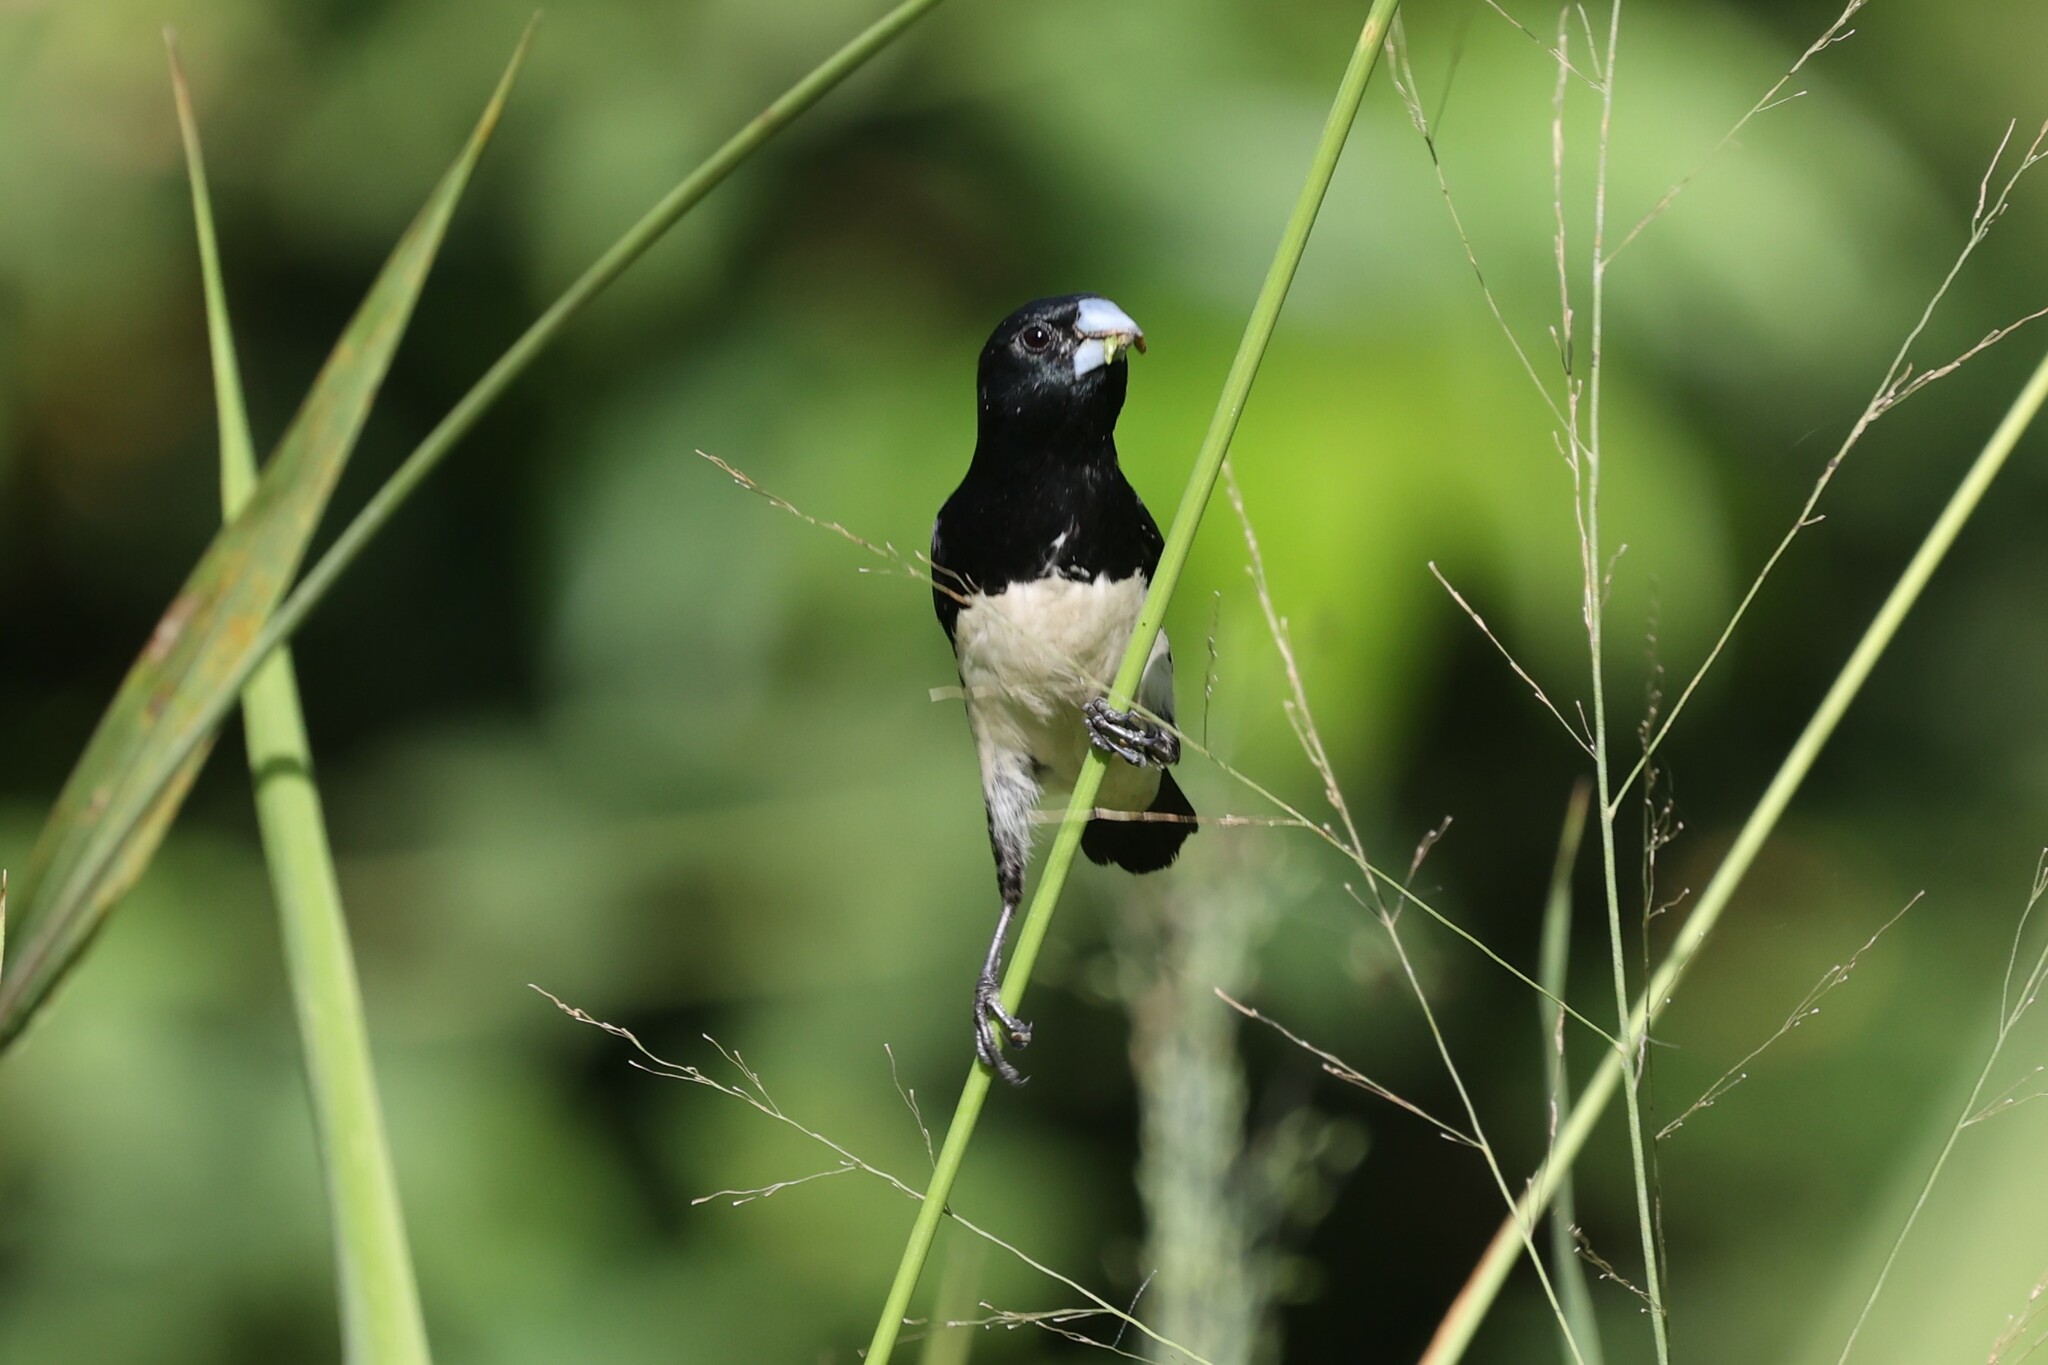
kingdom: Animalia
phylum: Chordata
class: Aves
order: Passeriformes
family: Estrildidae
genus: Lonchura
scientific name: Lonchura bicolor
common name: Black-and-white mannikin
